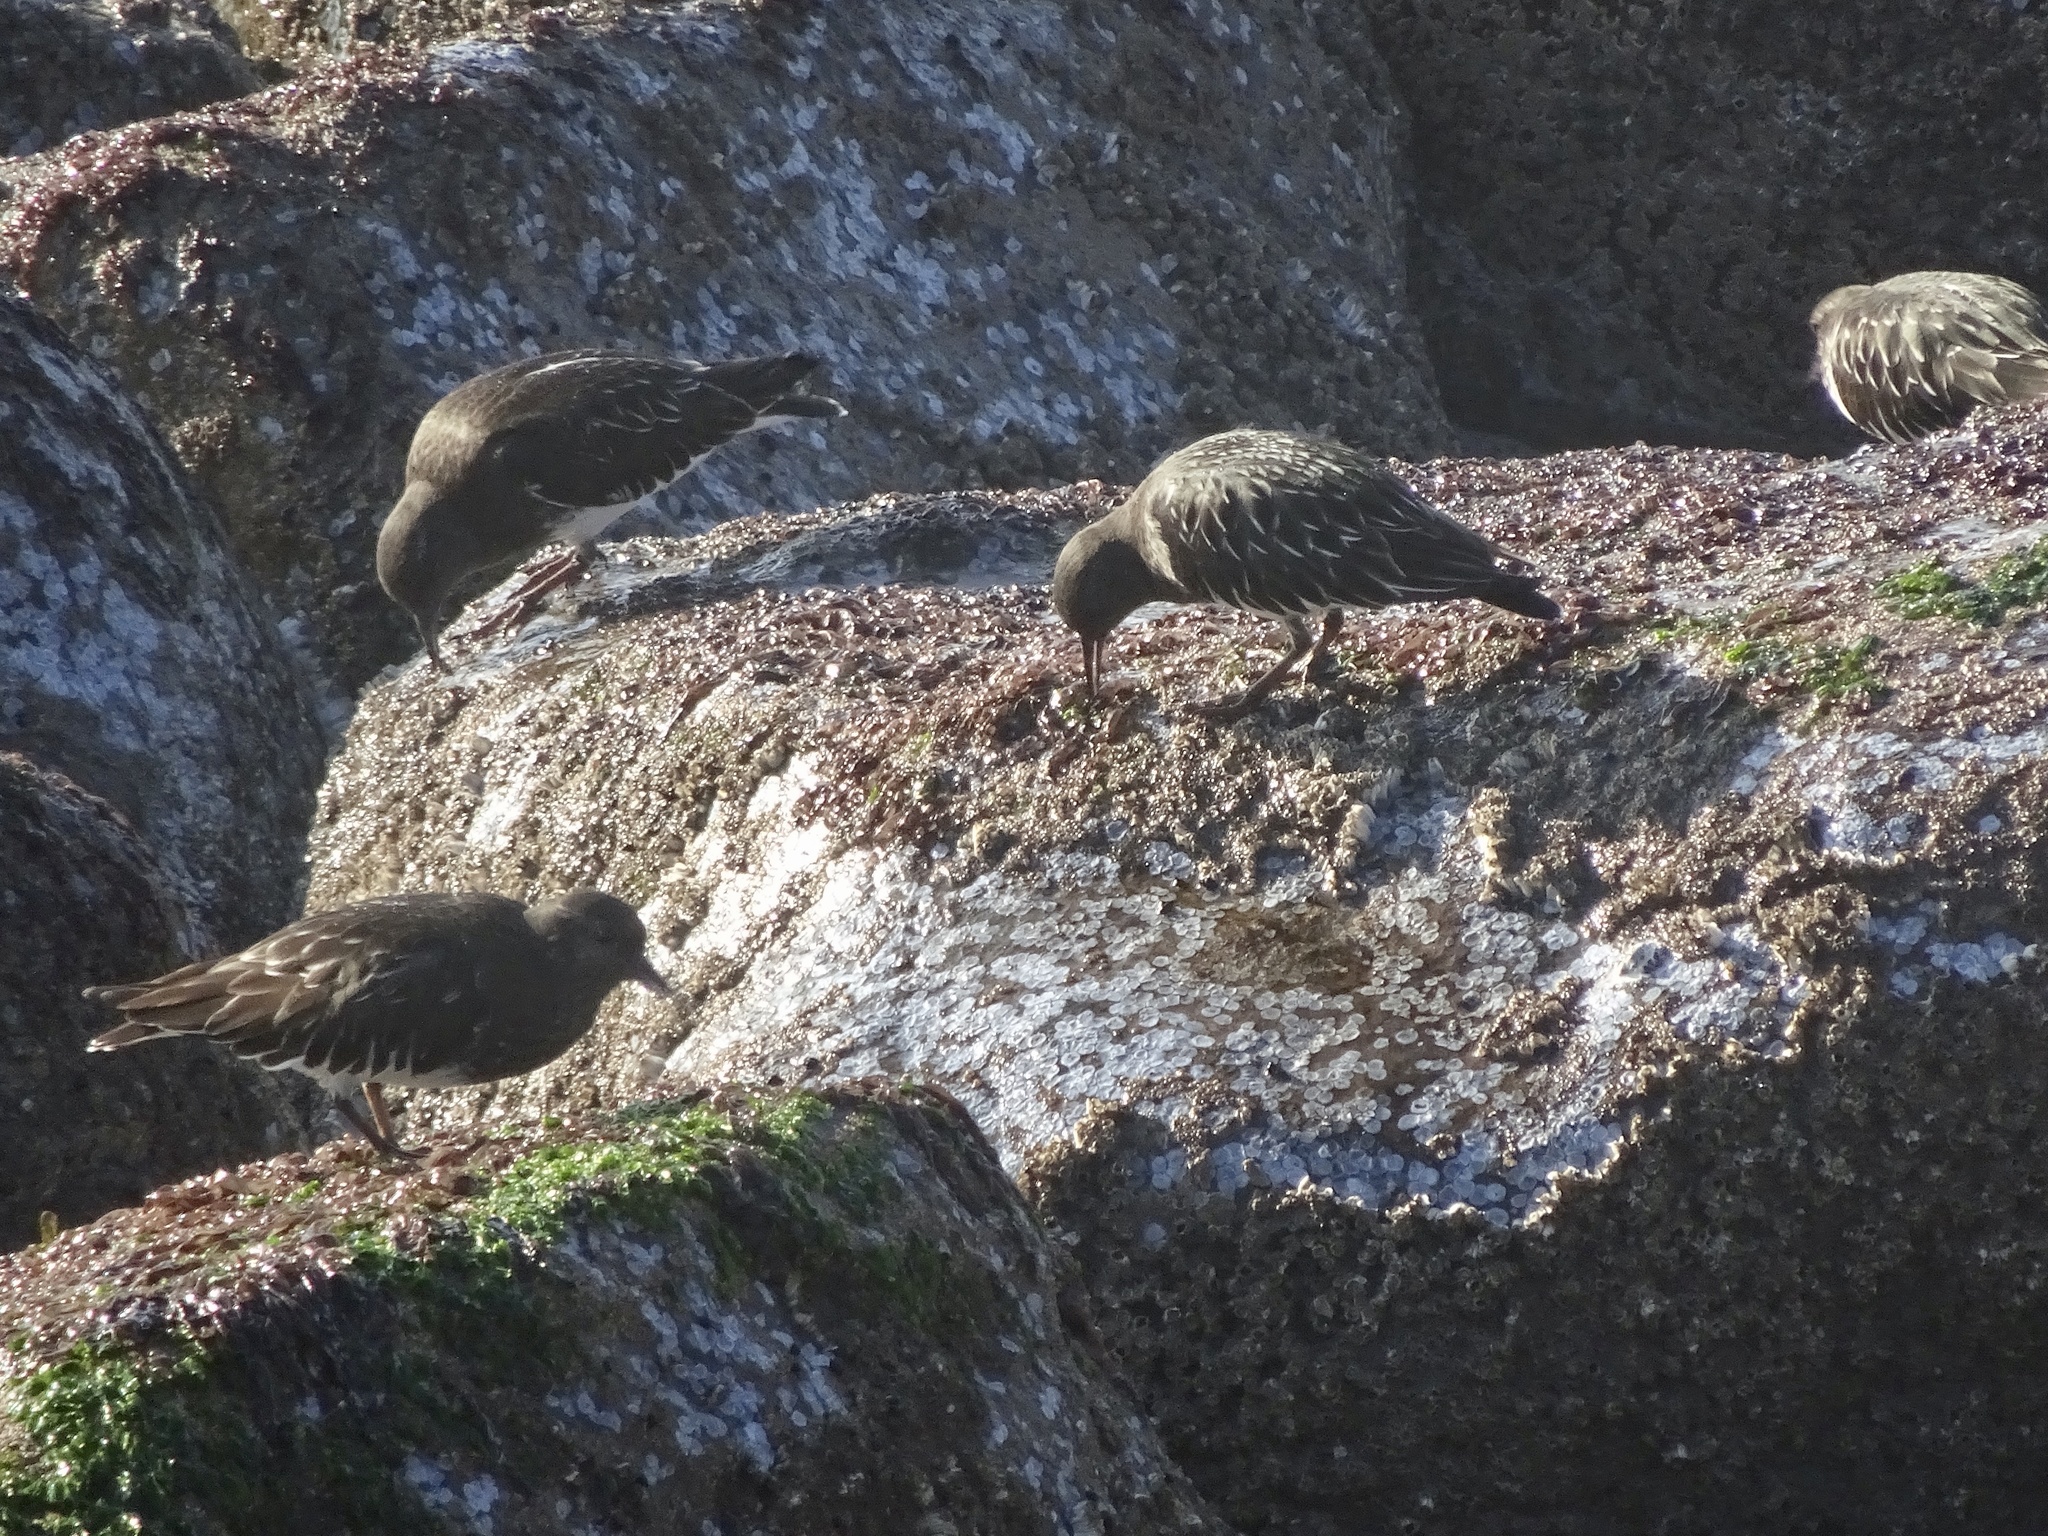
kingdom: Animalia
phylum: Chordata
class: Aves
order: Charadriiformes
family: Scolopacidae
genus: Arenaria
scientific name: Arenaria melanocephala
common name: Black turnstone
